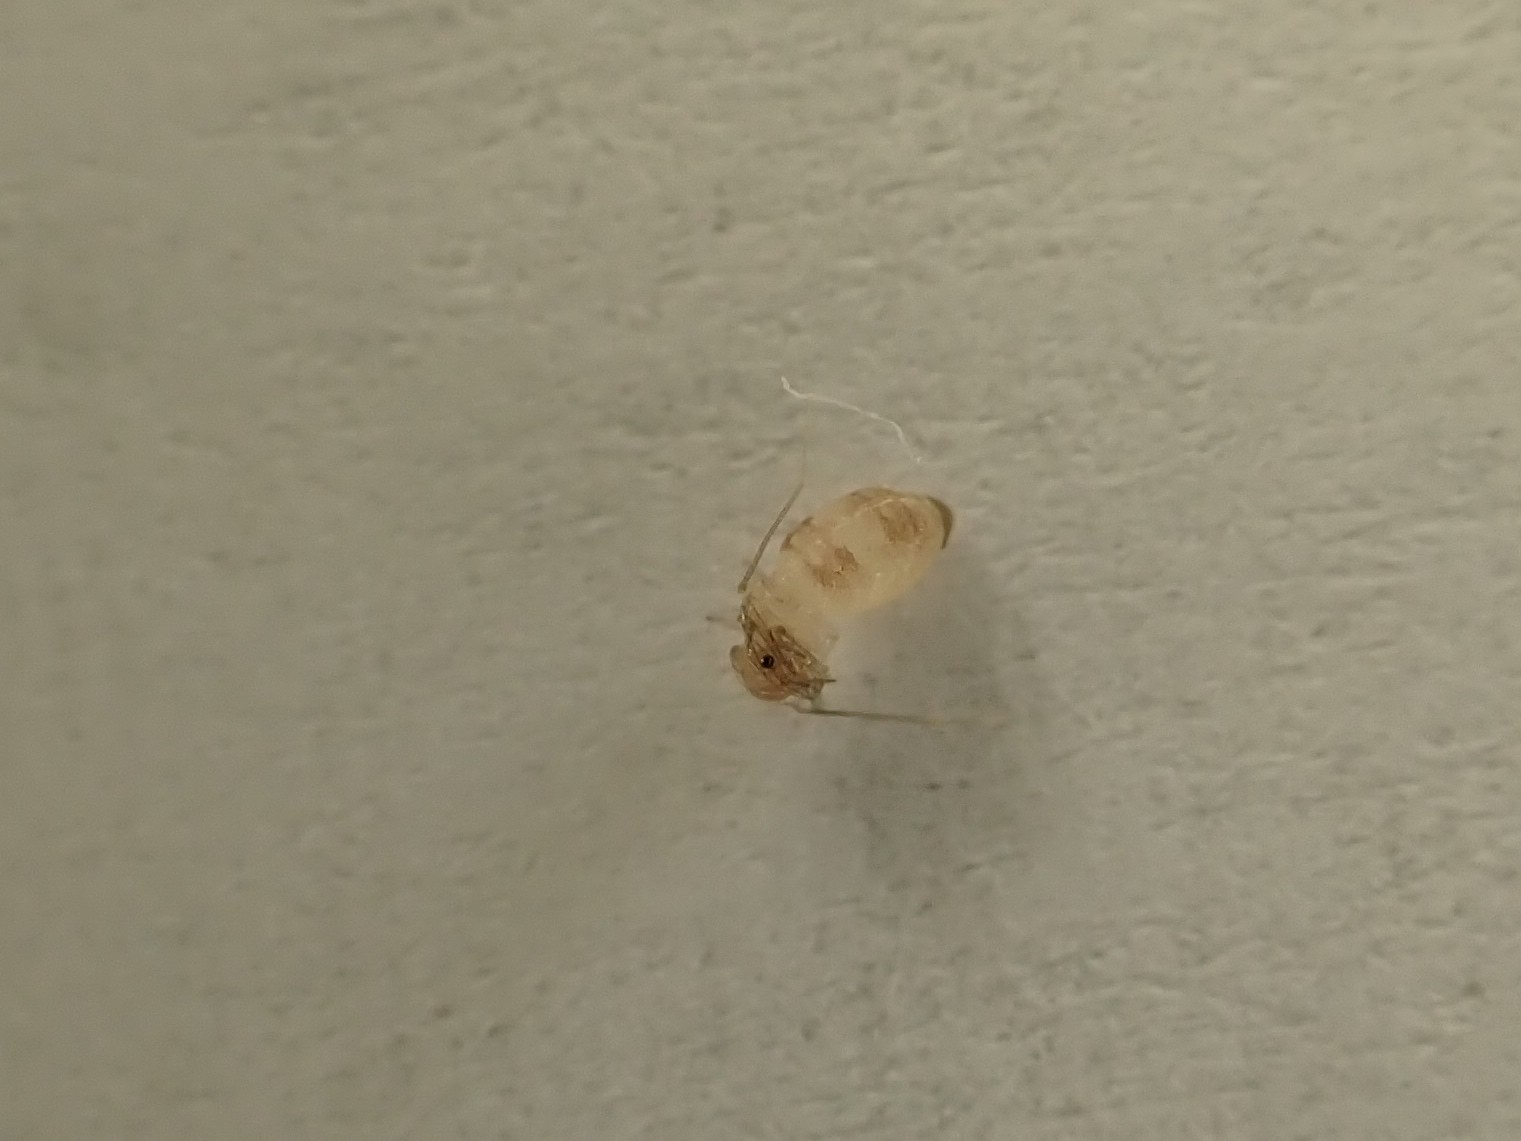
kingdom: Animalia
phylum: Arthropoda
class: Insecta
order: Psocodea
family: Psyllipsocidae
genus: Dorypteryx
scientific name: Dorypteryx domestica
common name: Cave barklouse
